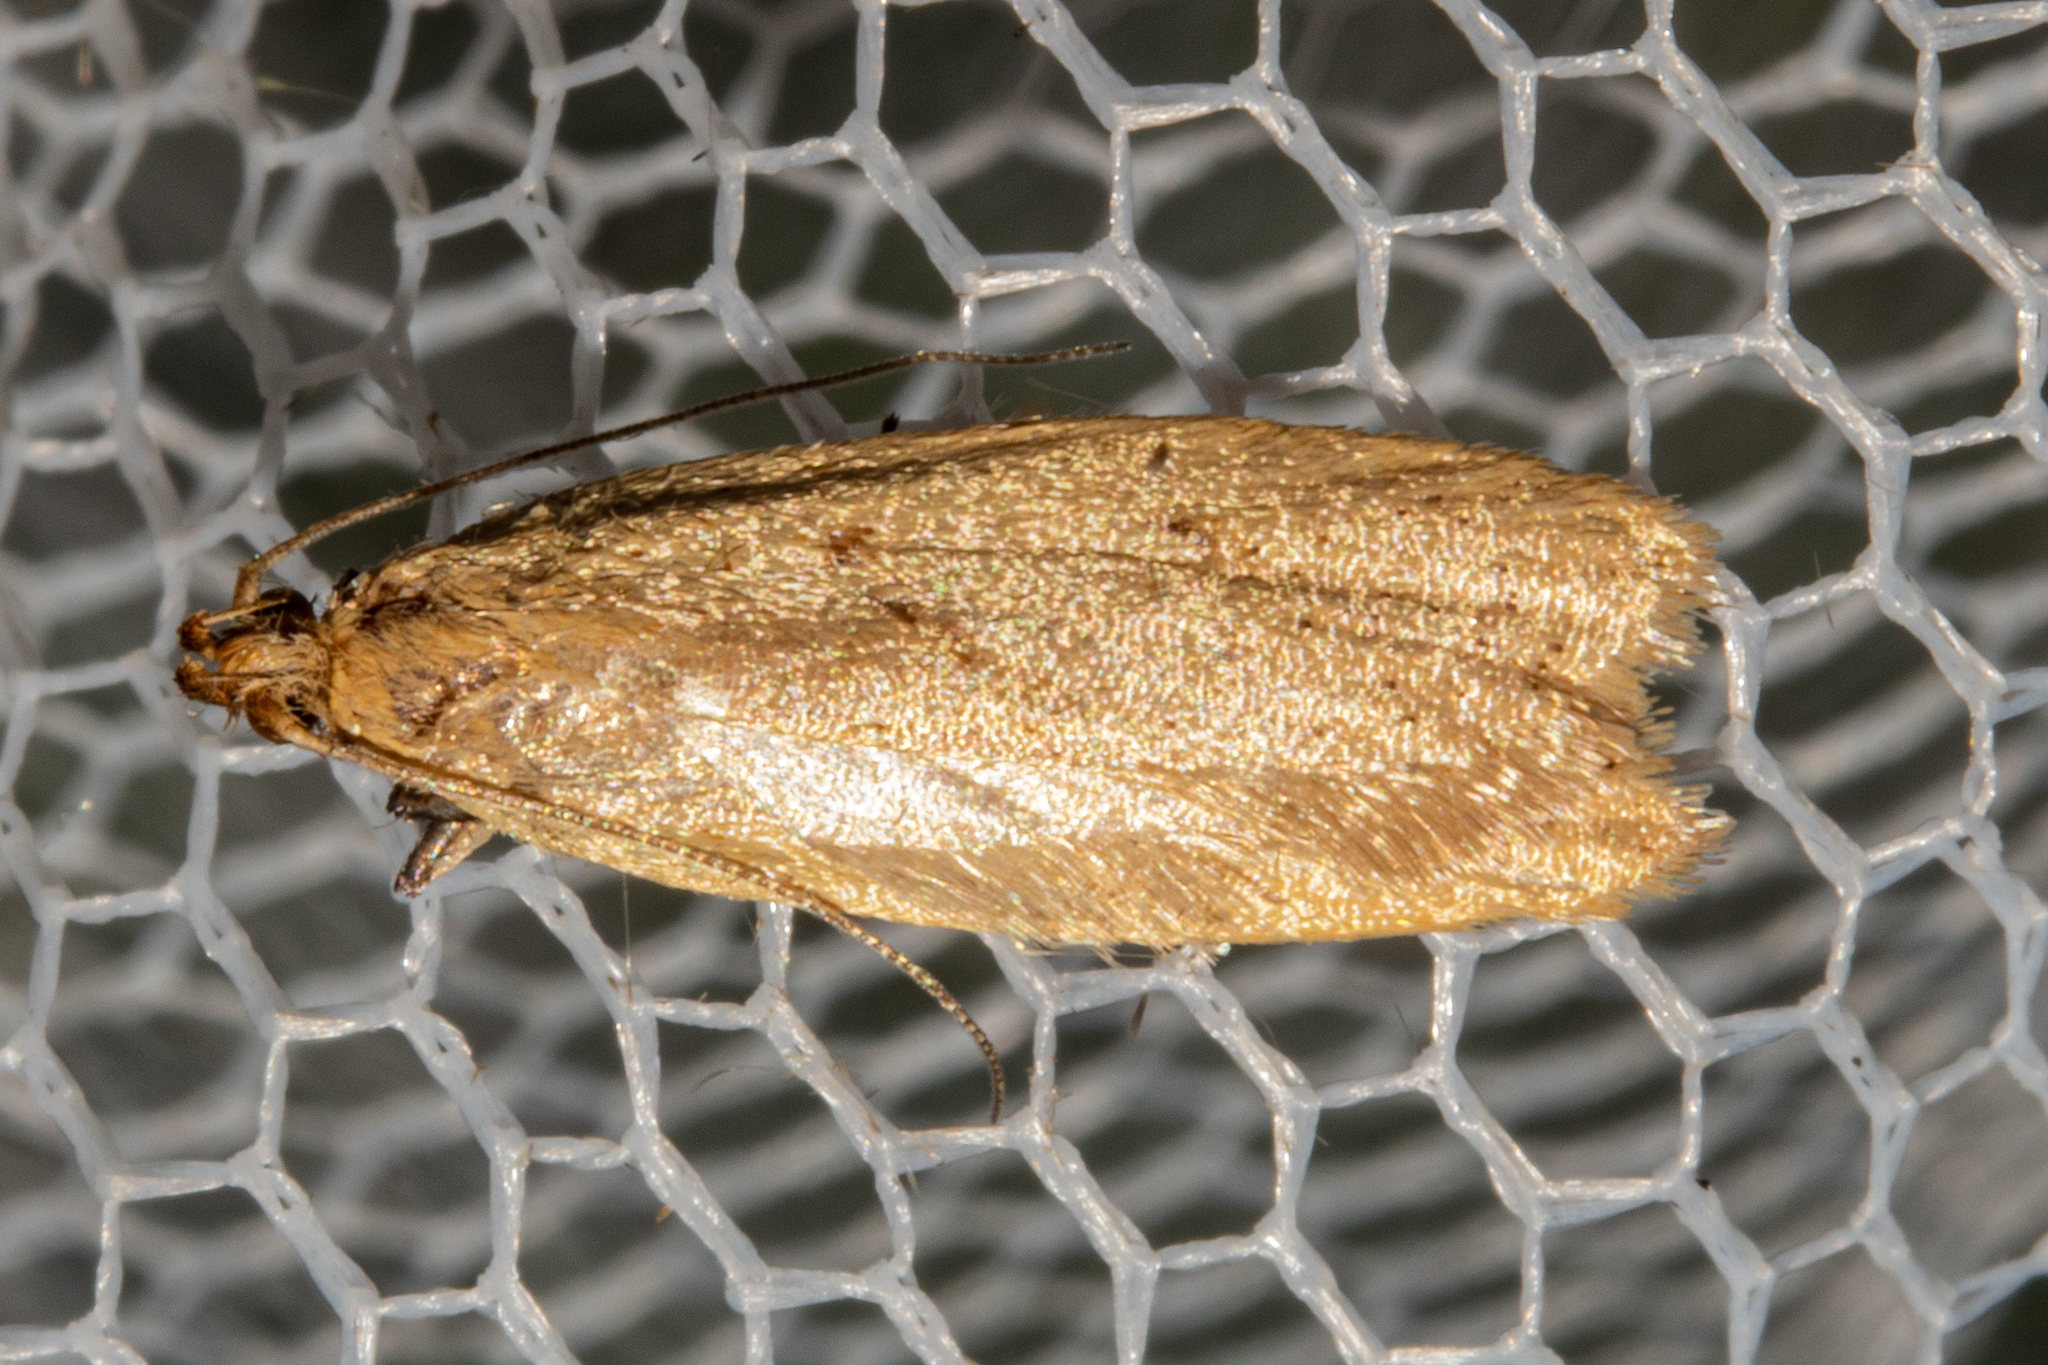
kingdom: Animalia
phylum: Arthropoda
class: Insecta
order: Lepidoptera
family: Oecophoridae
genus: Gymnobathra
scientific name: Gymnobathra sarcoxantha
